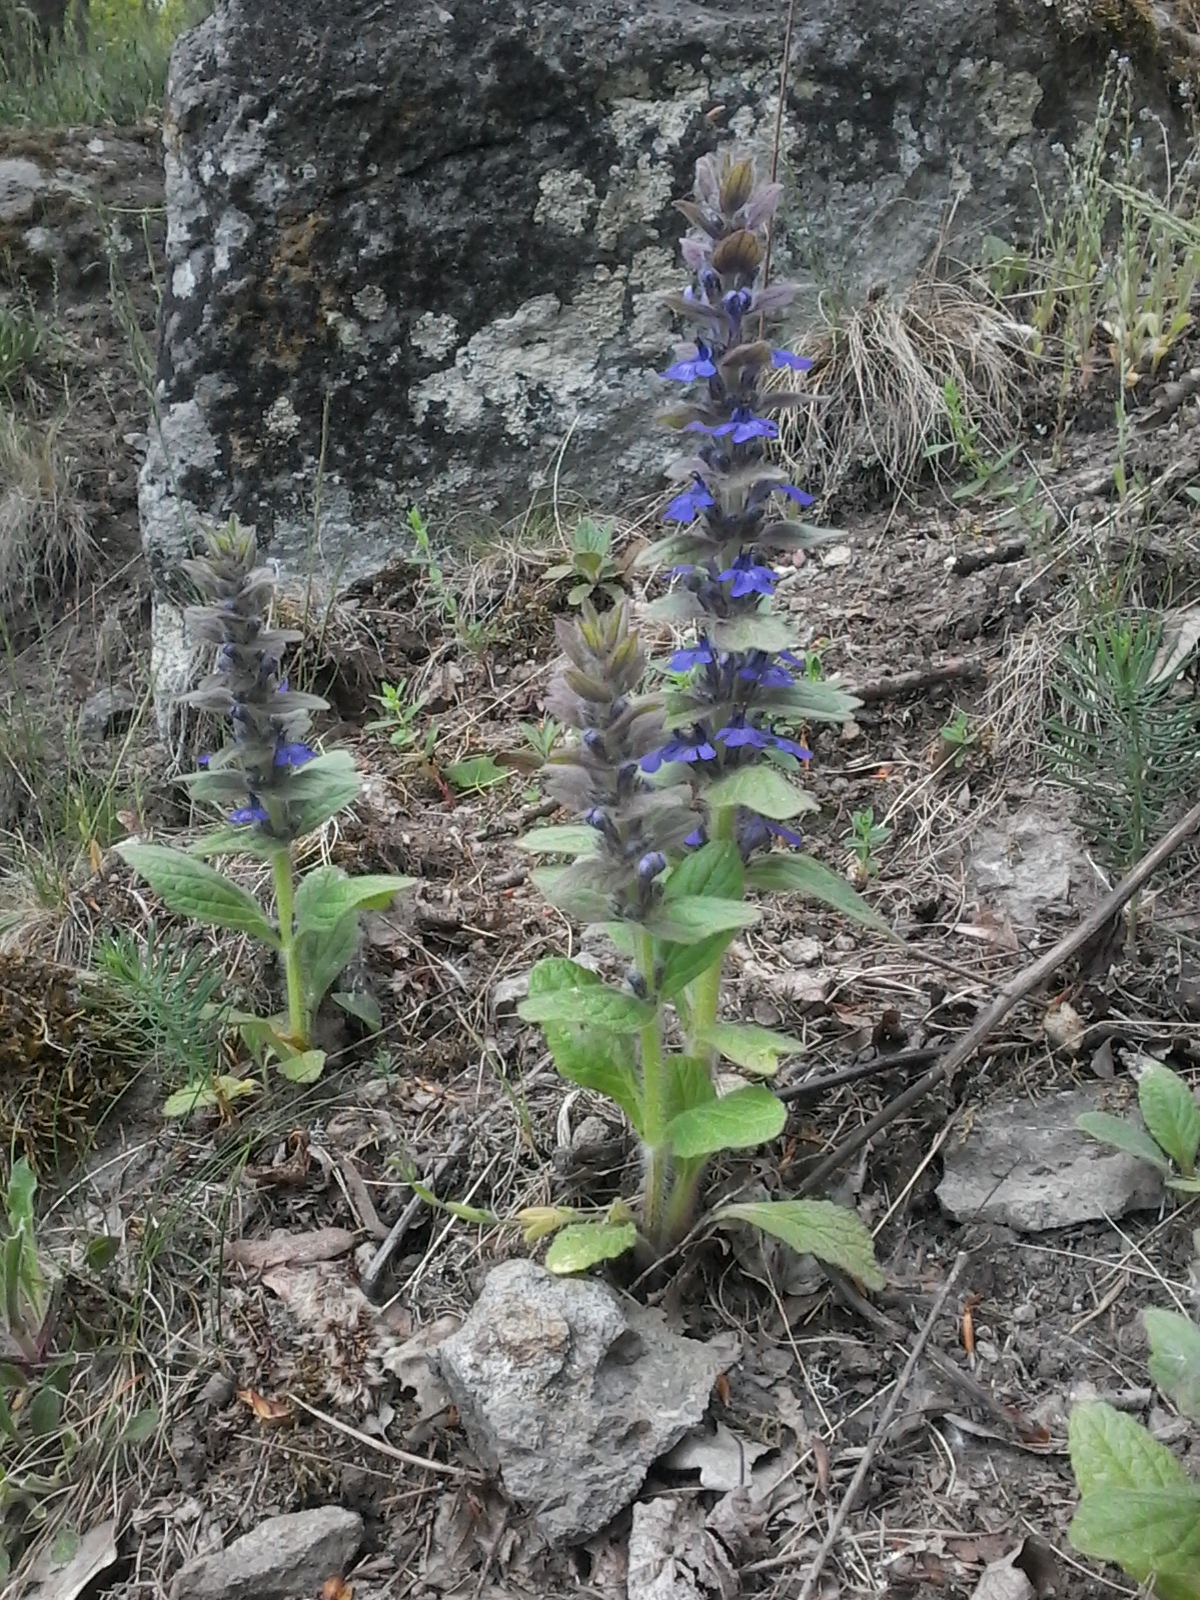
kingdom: Plantae
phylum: Tracheophyta
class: Magnoliopsida
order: Lamiales
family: Lamiaceae
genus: Ajuga
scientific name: Ajuga genevensis
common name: Blue bugle
